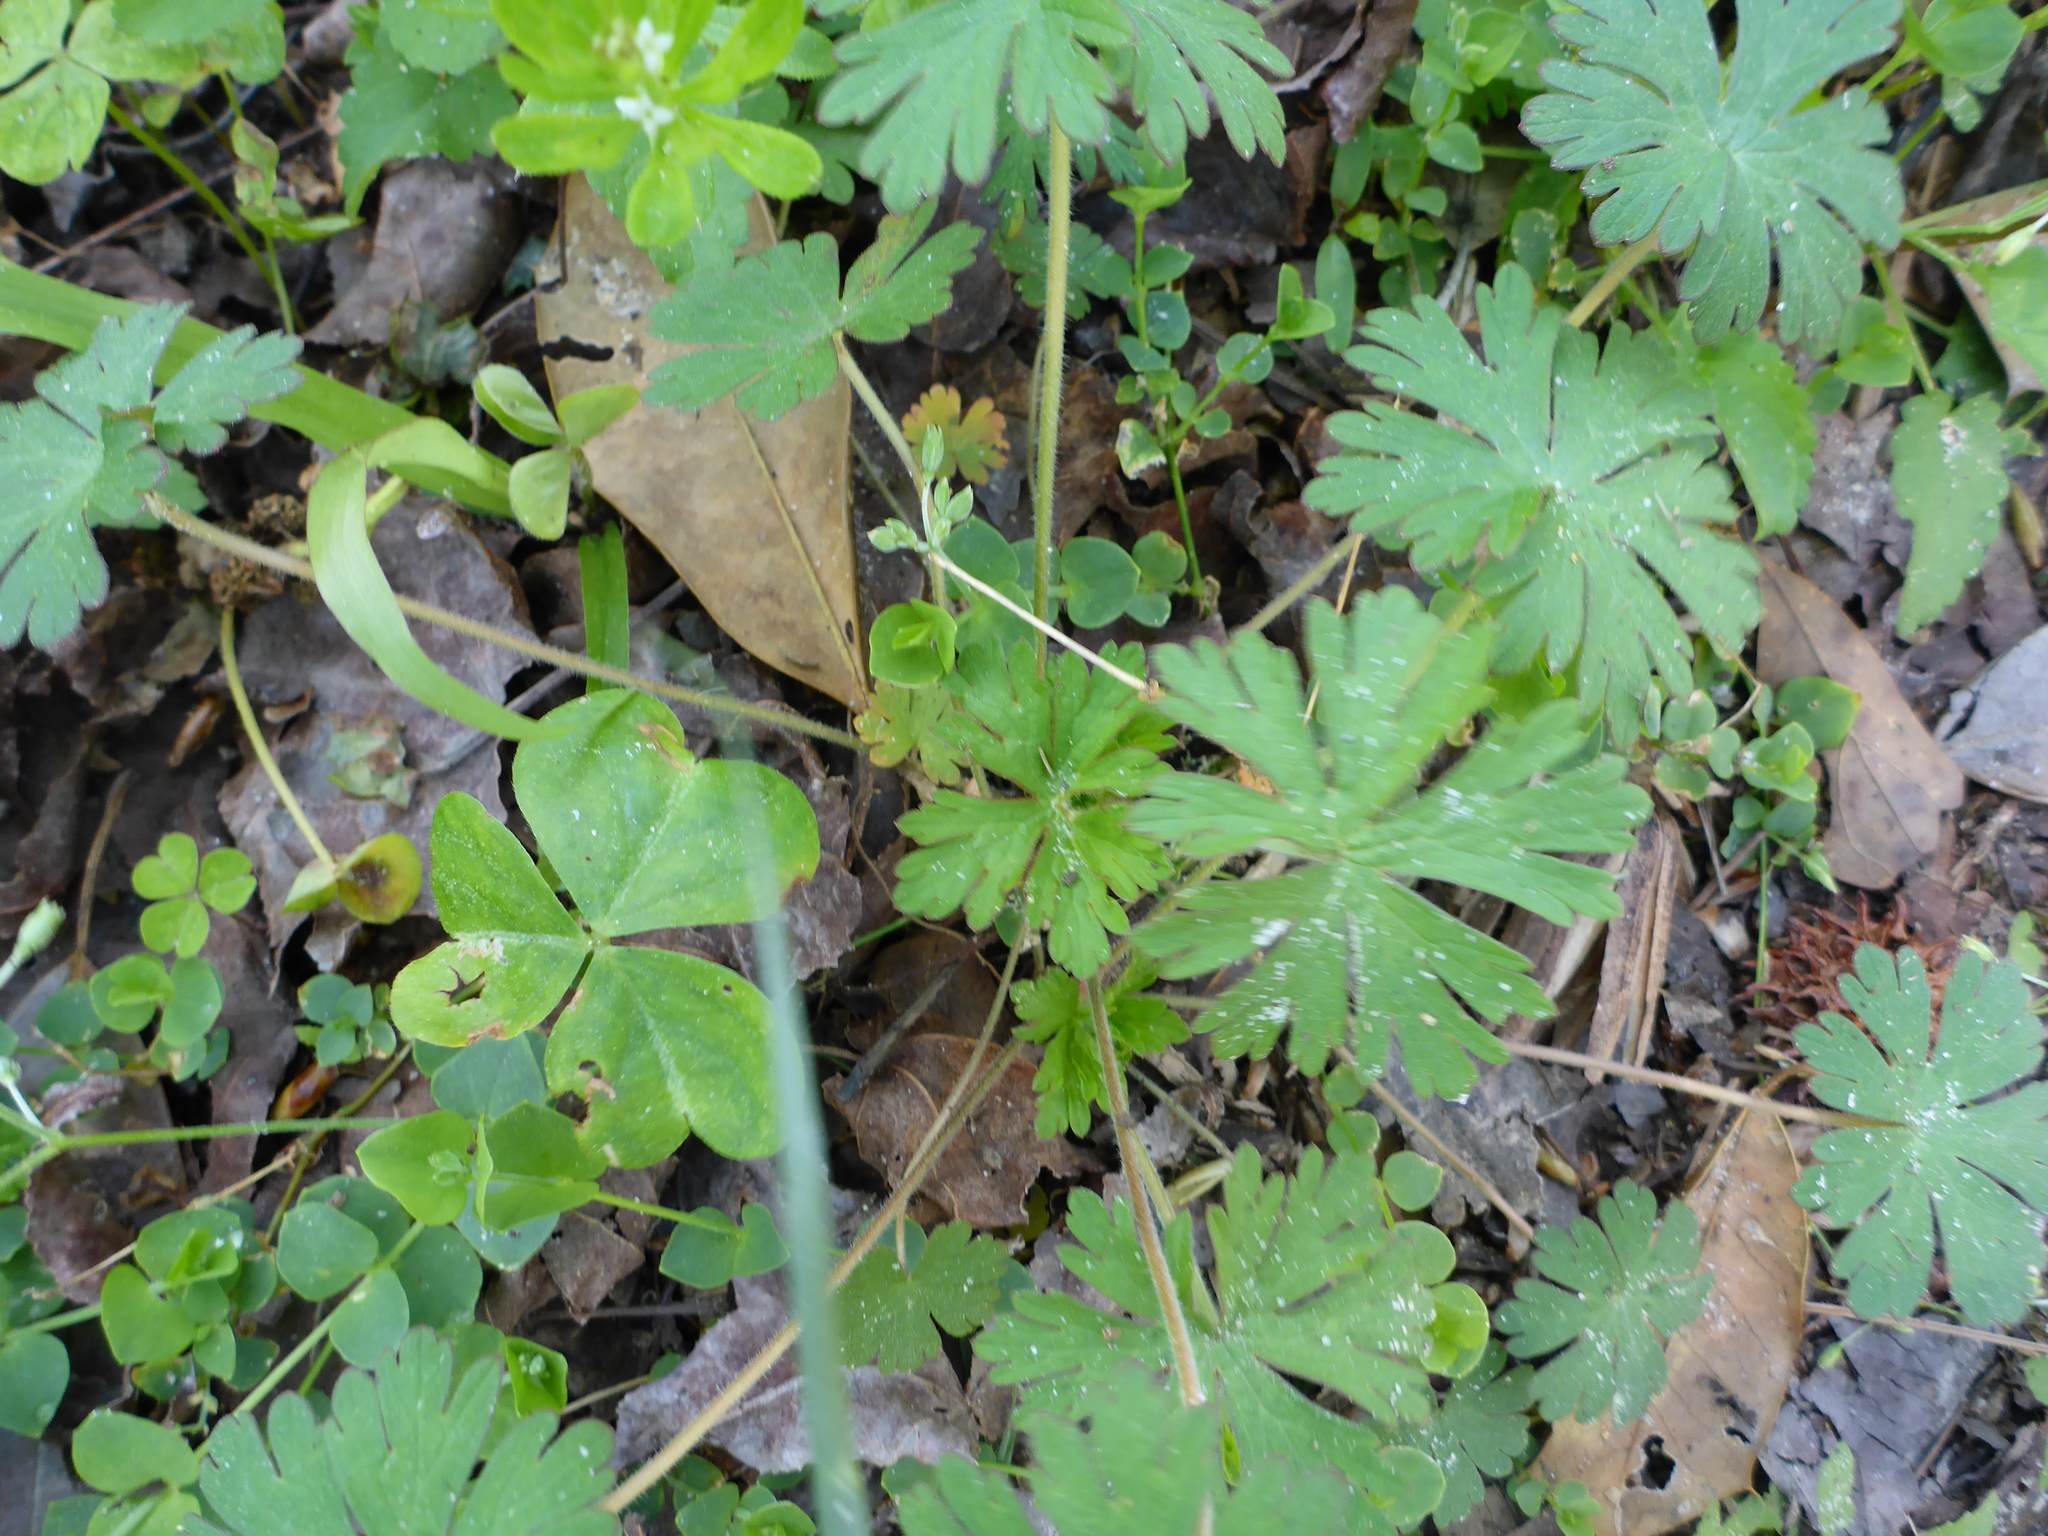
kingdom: Plantae
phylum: Tracheophyta
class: Magnoliopsida
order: Geraniales
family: Geraniaceae
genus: Geranium
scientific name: Geranium carolinianum
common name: Carolina crane's-bill
